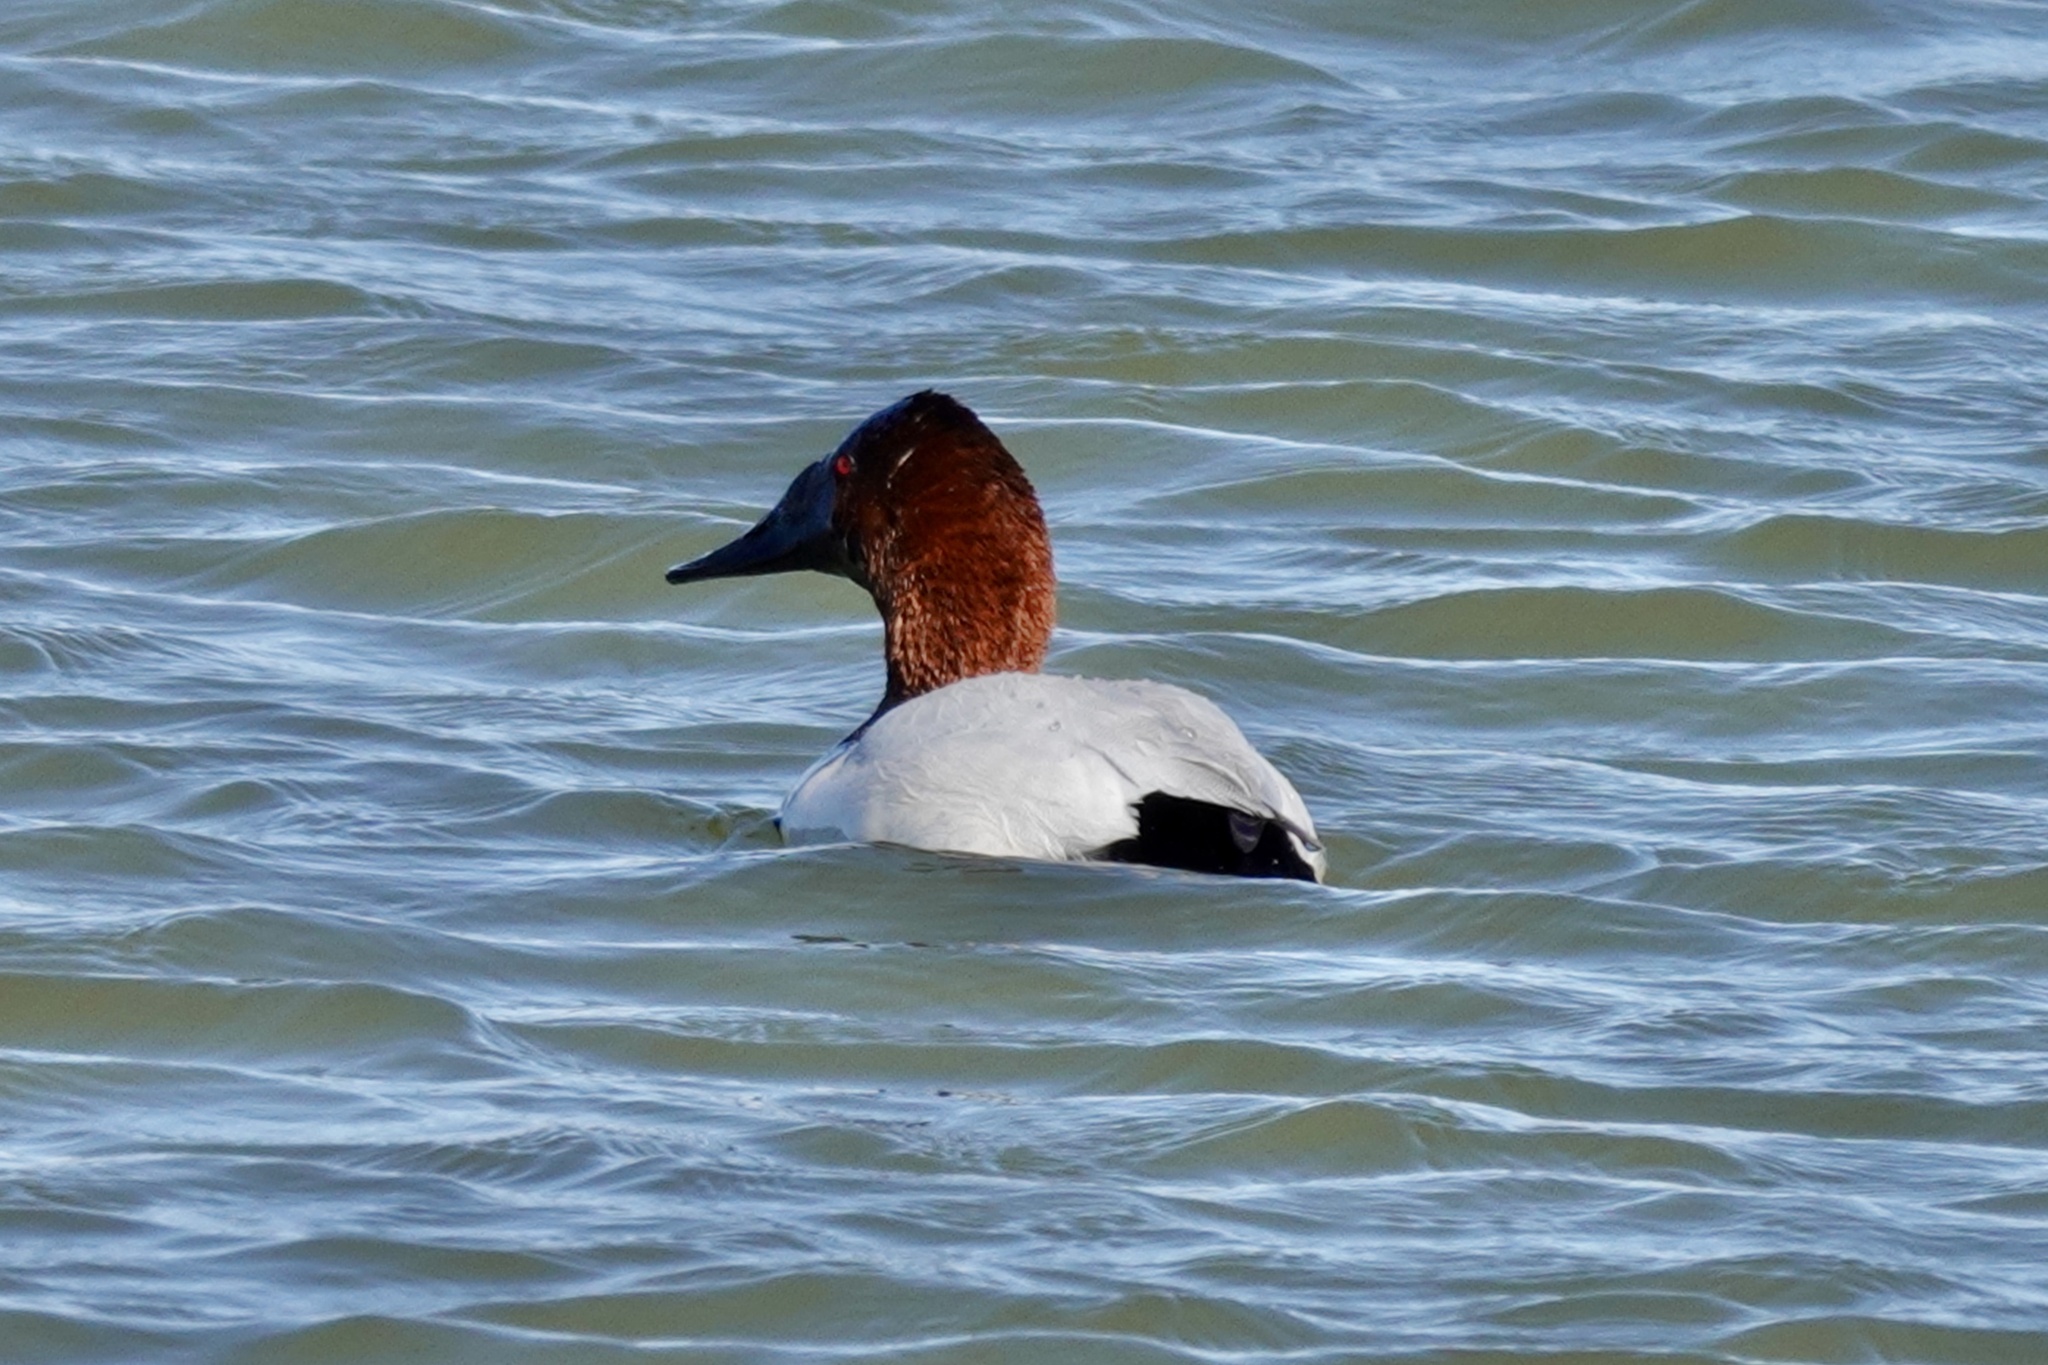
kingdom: Animalia
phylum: Chordata
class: Aves
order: Anseriformes
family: Anatidae
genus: Aythya
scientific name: Aythya valisineria
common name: Canvasback
